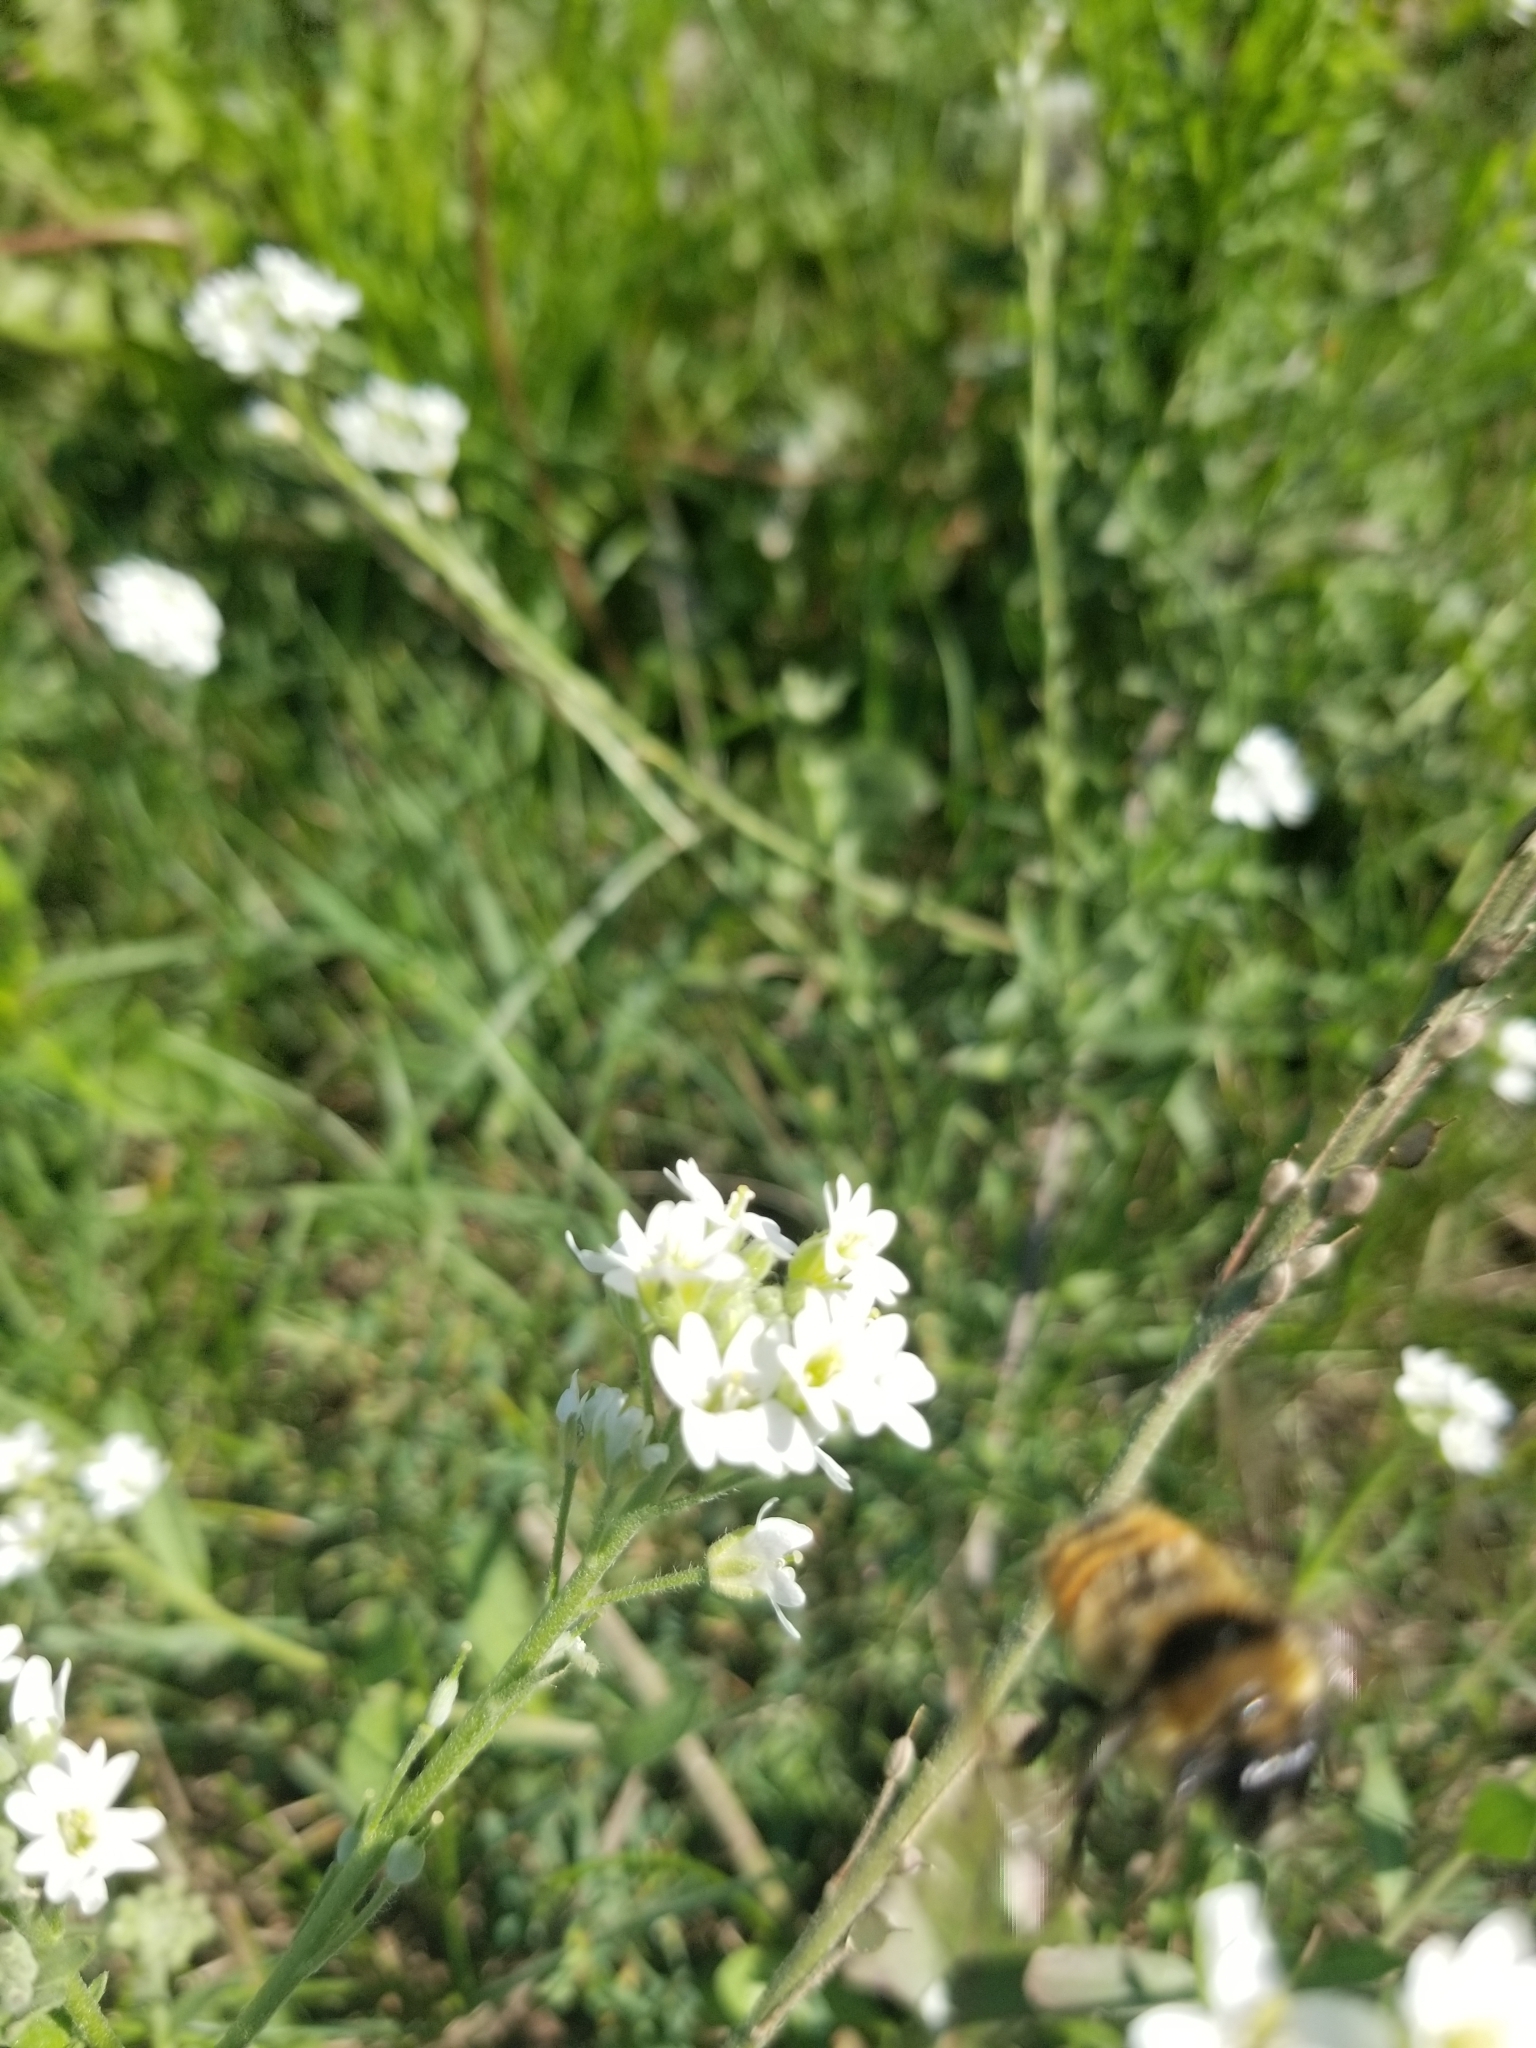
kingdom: Animalia
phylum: Arthropoda
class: Insecta
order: Hymenoptera
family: Apidae
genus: Bombus
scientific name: Bombus rufocinctus
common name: Red-belted bumble bee
